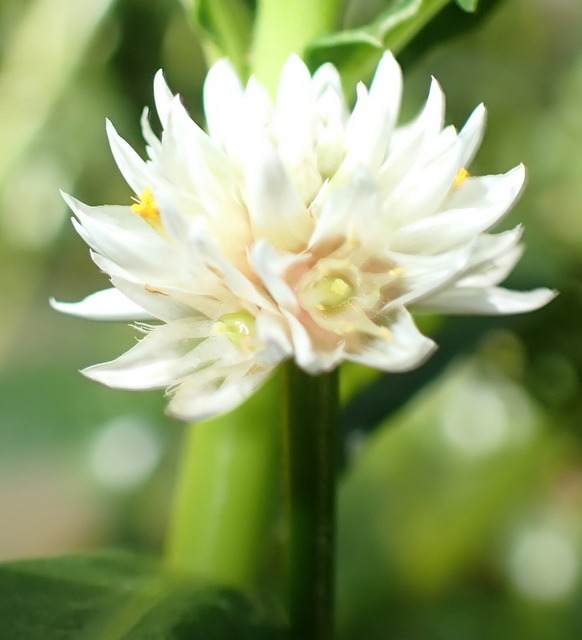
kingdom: Plantae
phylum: Tracheophyta
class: Magnoliopsida
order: Caryophyllales
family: Amaranthaceae
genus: Alternanthera
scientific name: Alternanthera philoxeroides
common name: Alligatorweed
